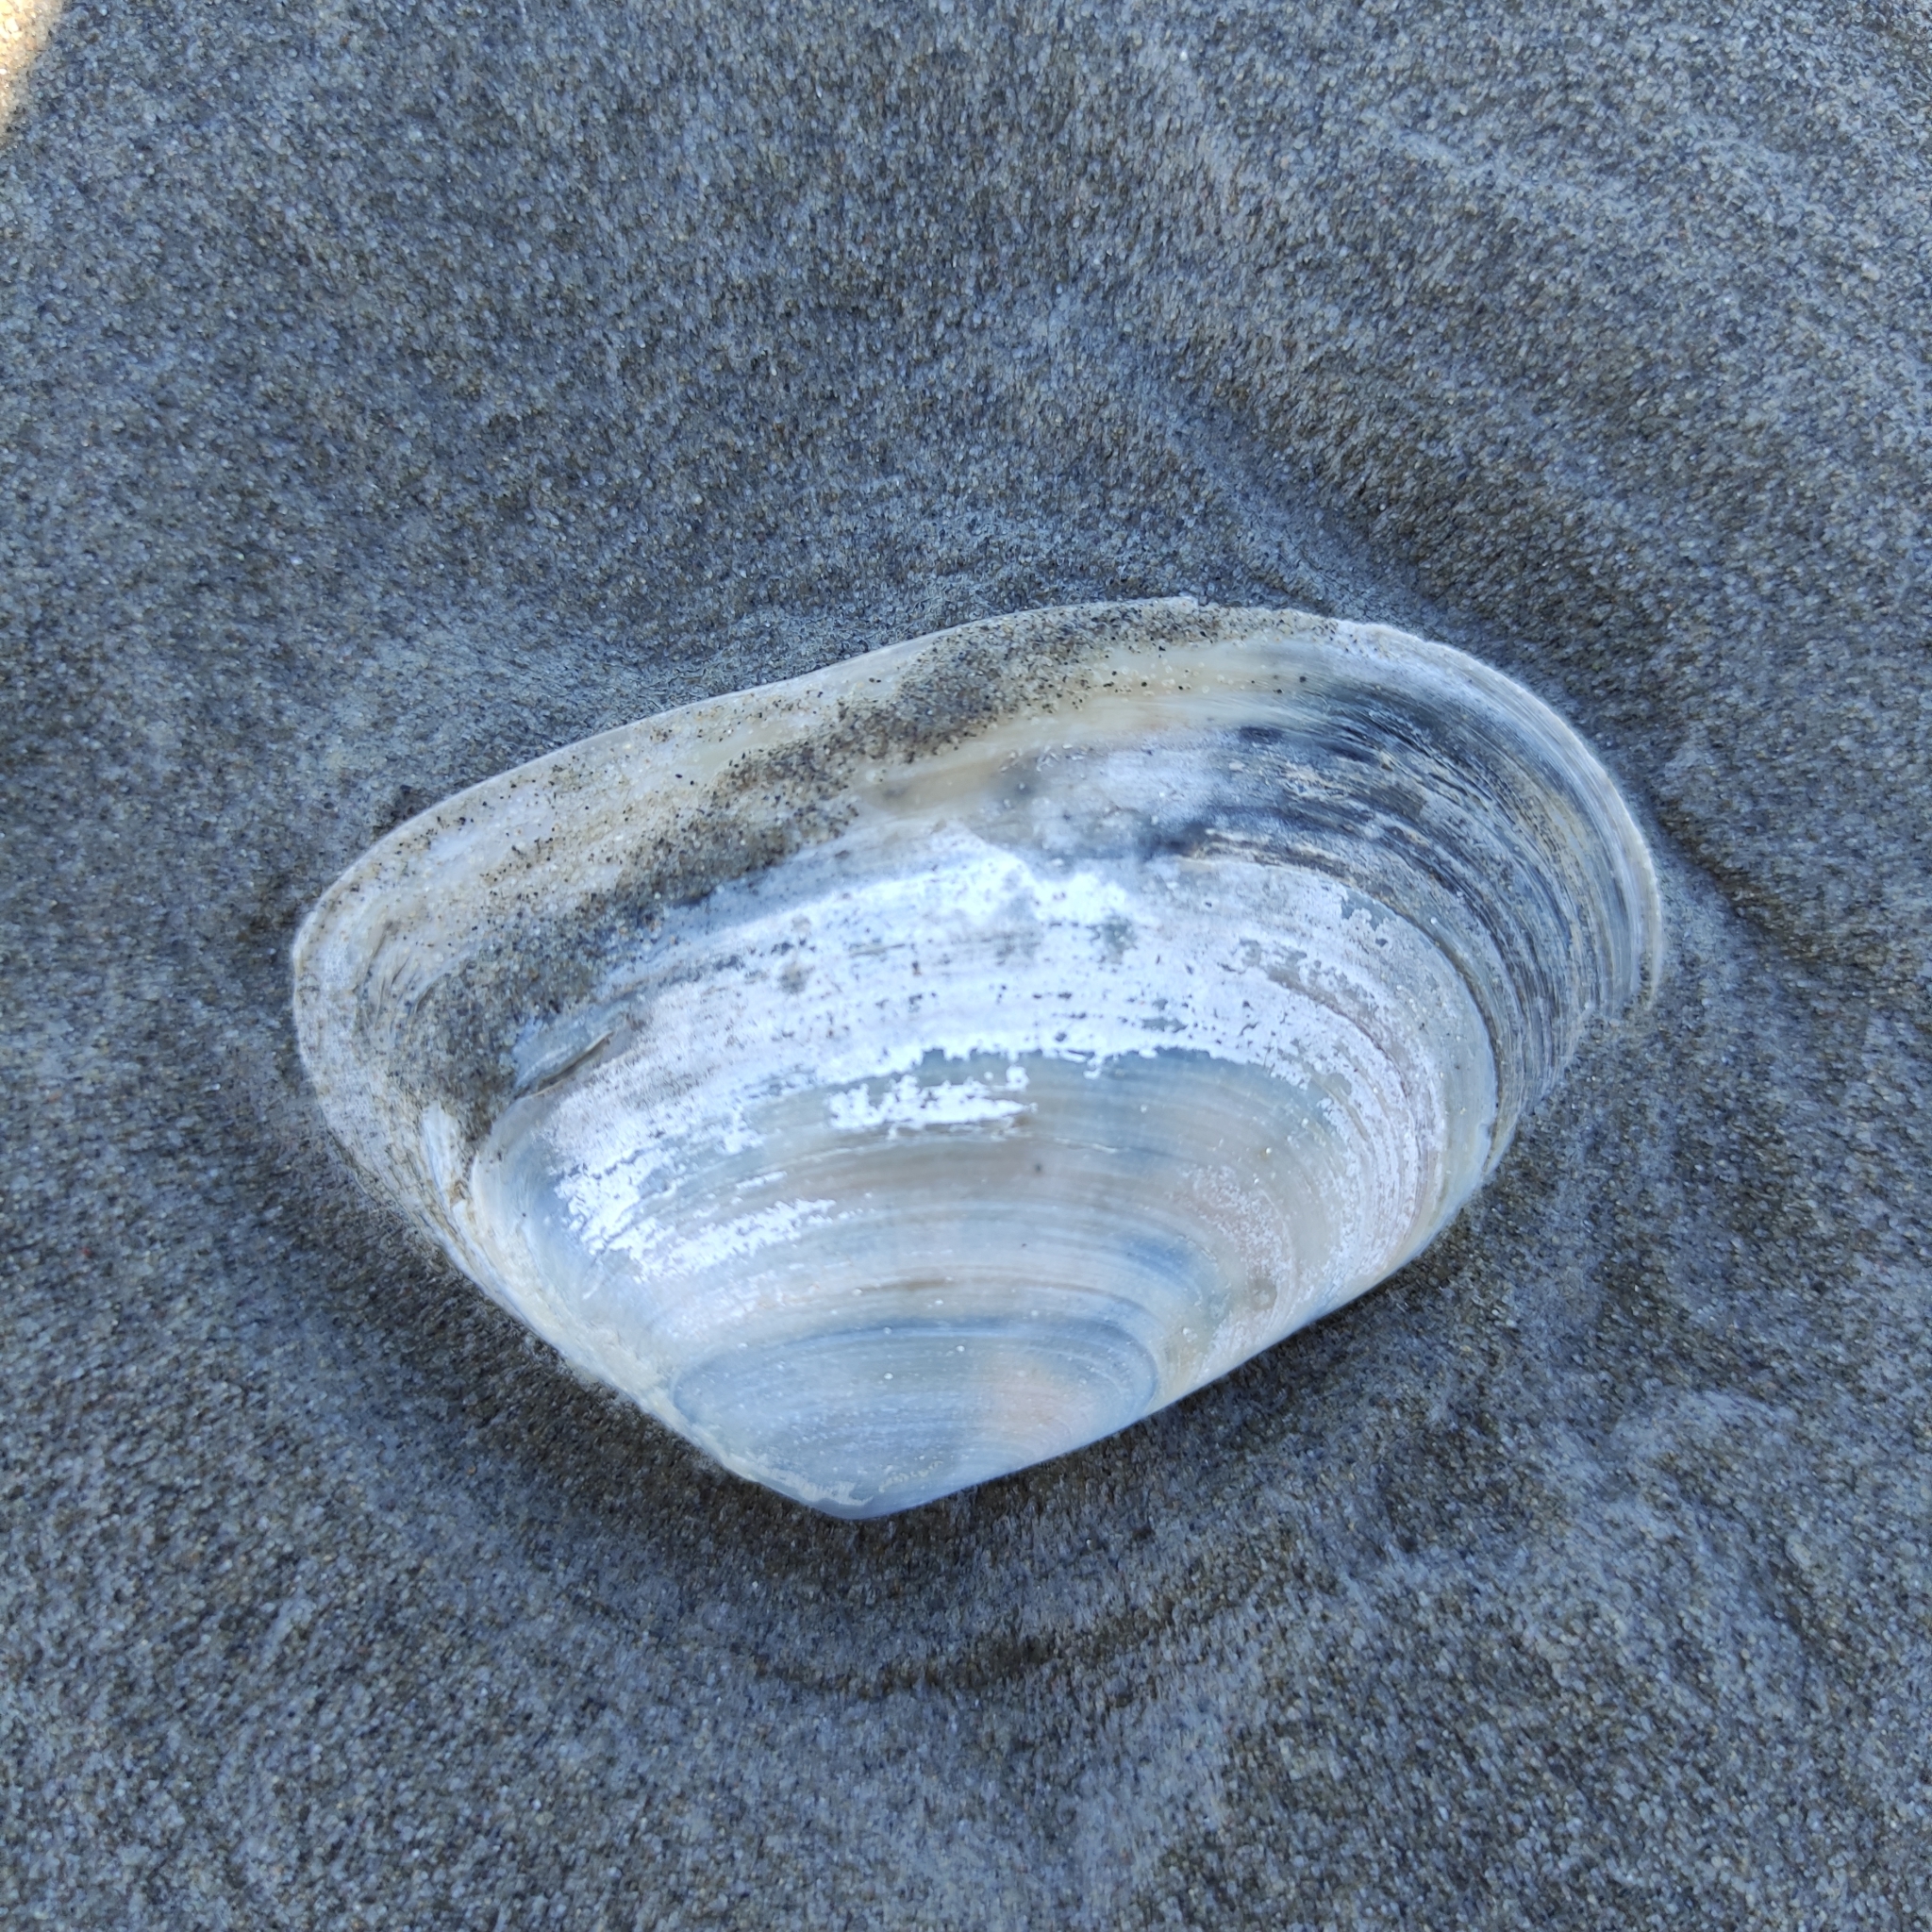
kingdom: Animalia
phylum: Mollusca
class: Bivalvia
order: Venerida
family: Mesodesmatidae
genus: Paphies
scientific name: Paphies donacina
